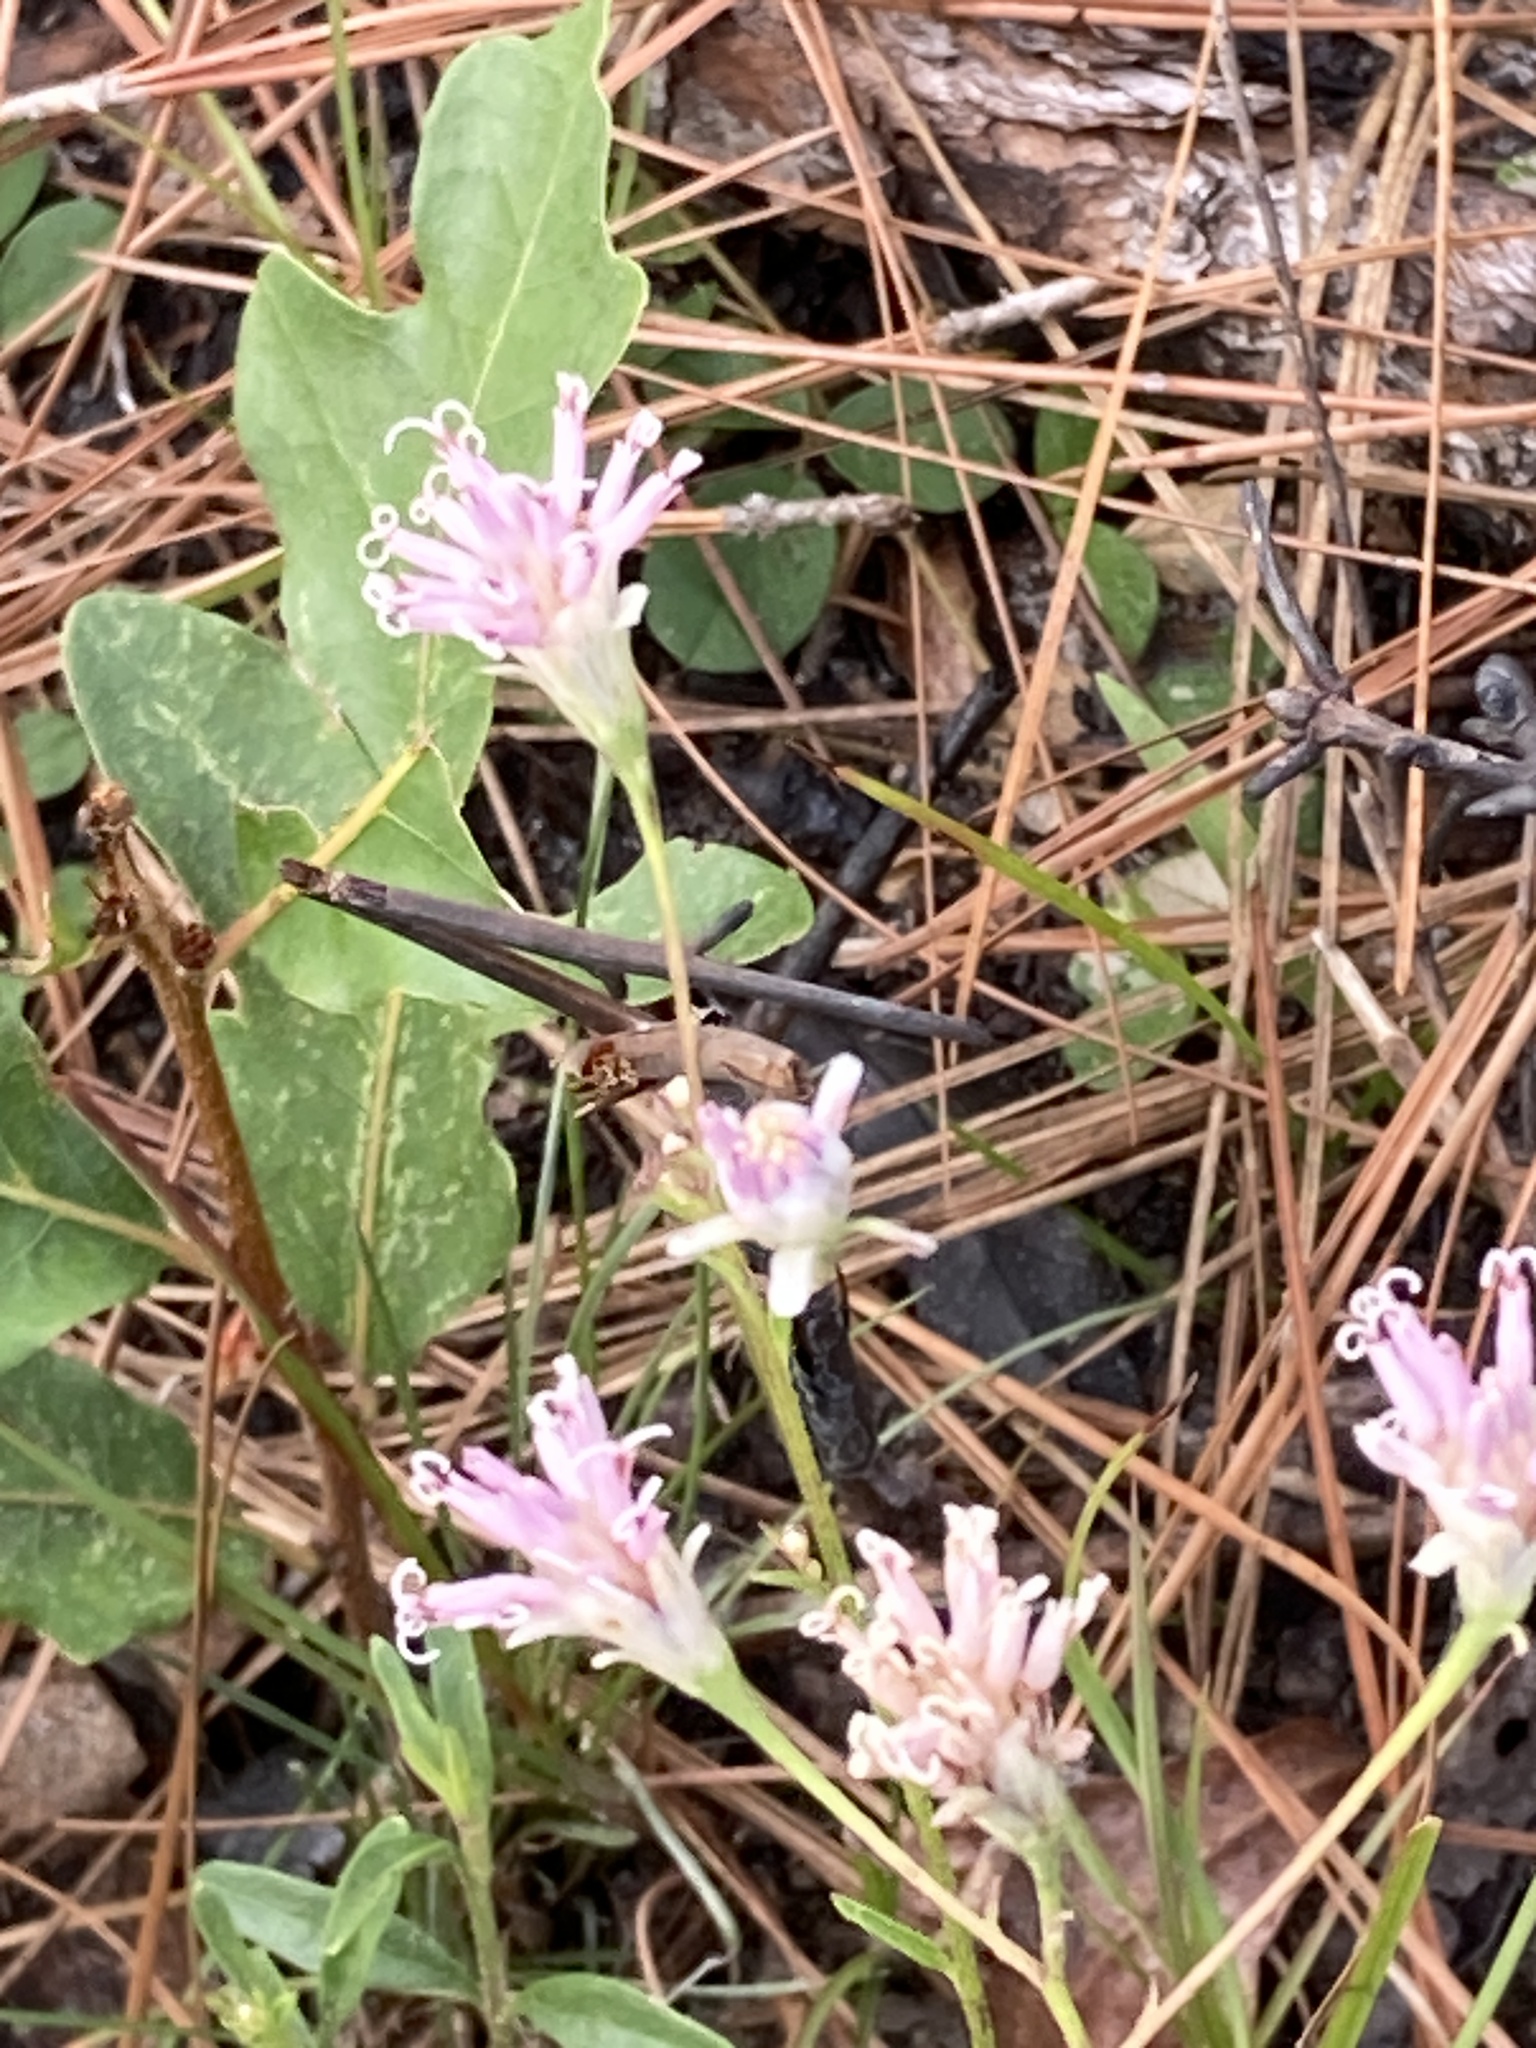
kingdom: Plantae
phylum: Tracheophyta
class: Magnoliopsida
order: Asterales
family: Asteraceae
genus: Palafoxia
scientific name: Palafoxia integrifolia
